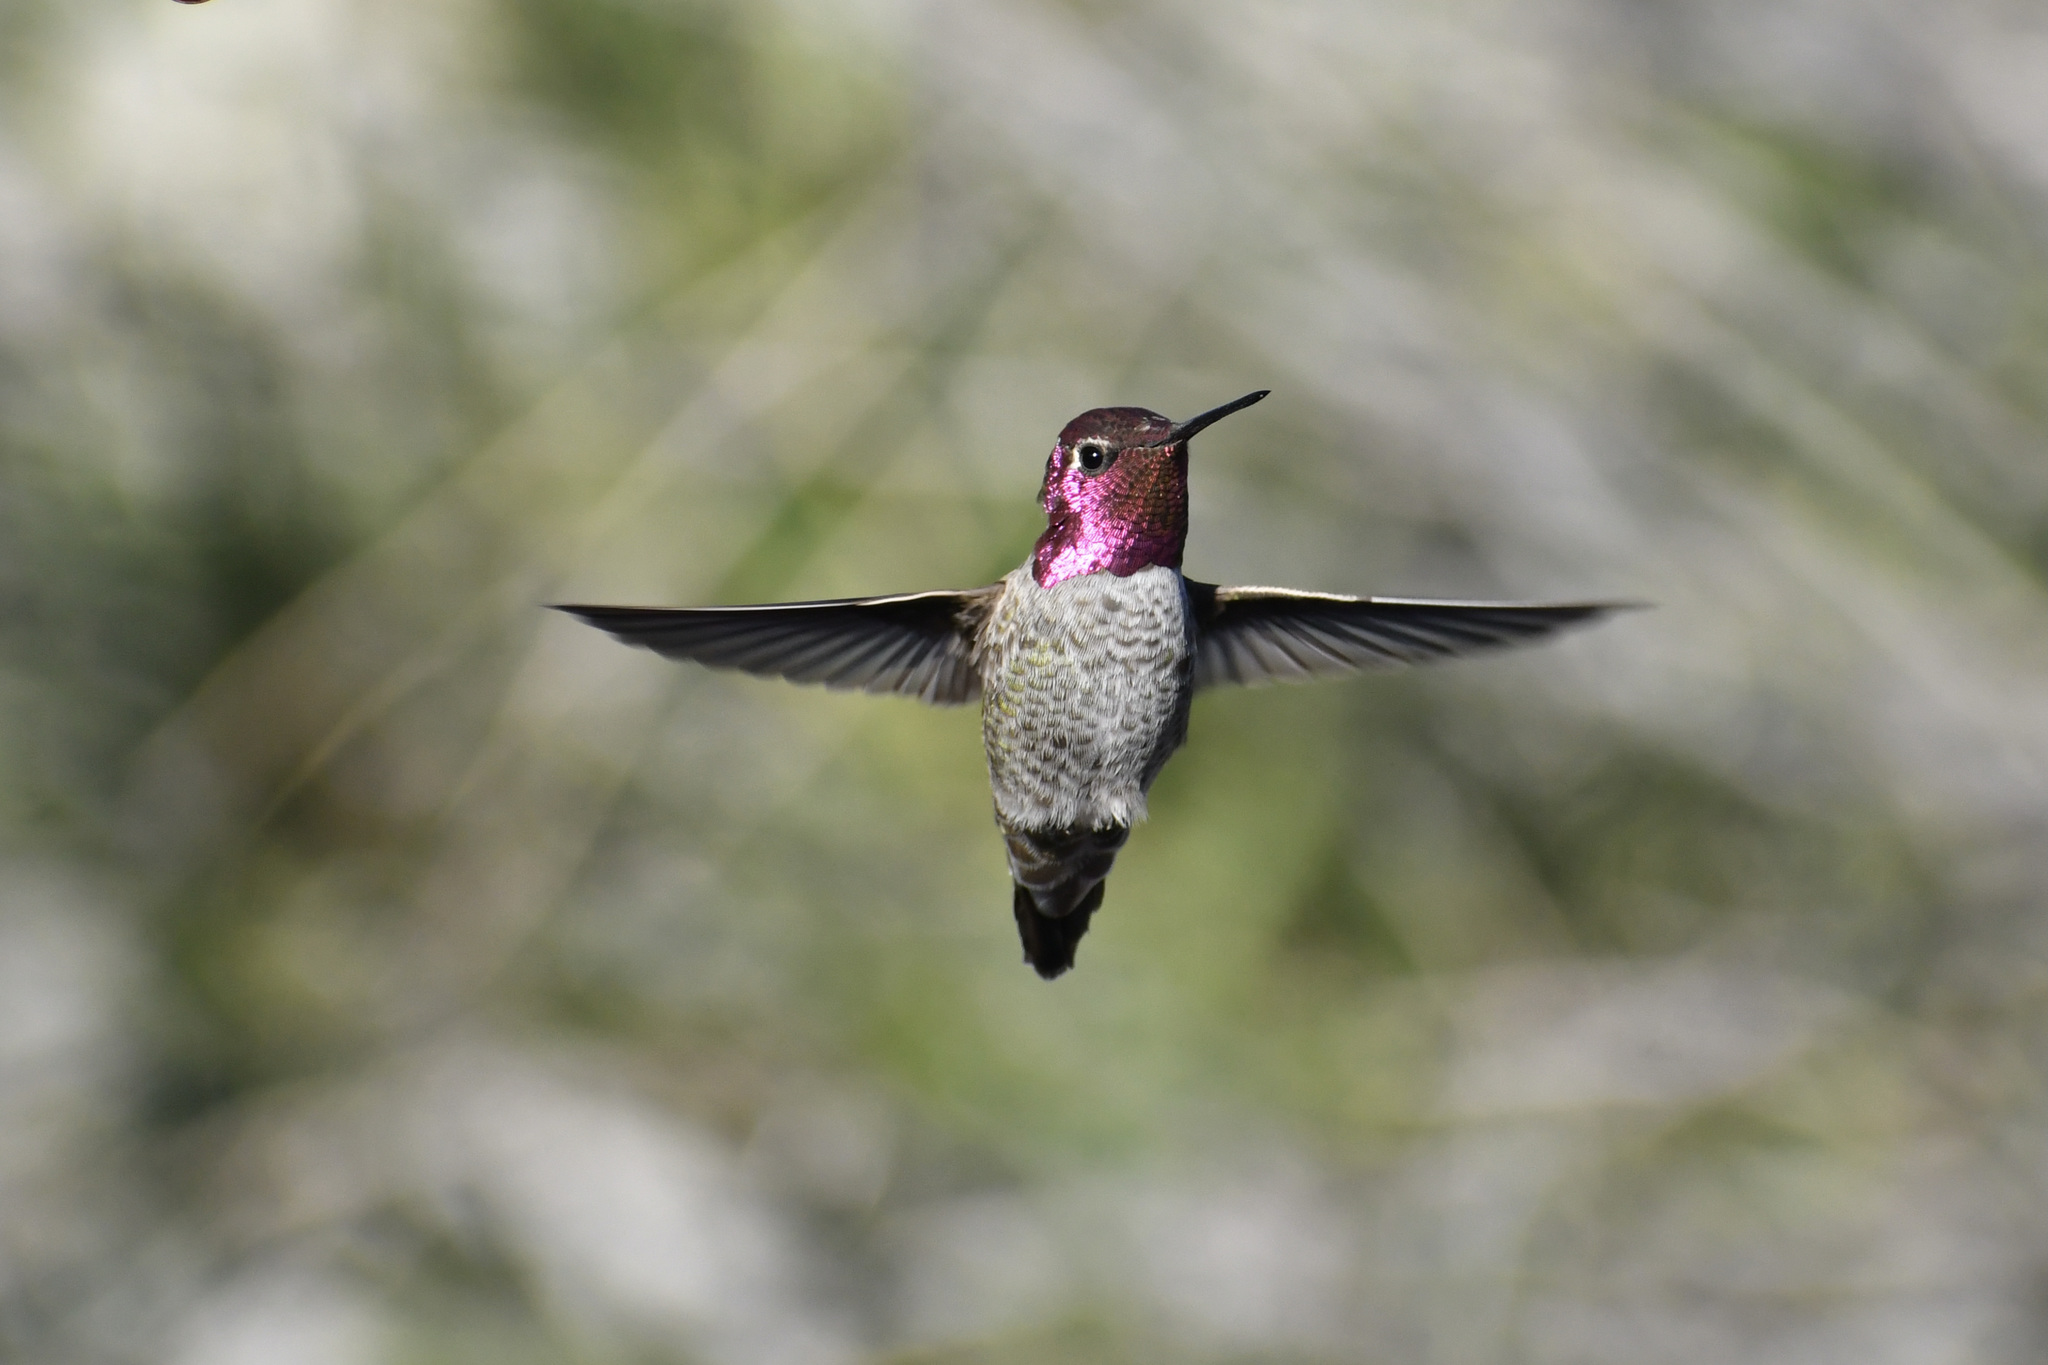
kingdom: Animalia
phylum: Chordata
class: Aves
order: Apodiformes
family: Trochilidae
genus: Calypte
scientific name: Calypte anna
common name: Anna's hummingbird
